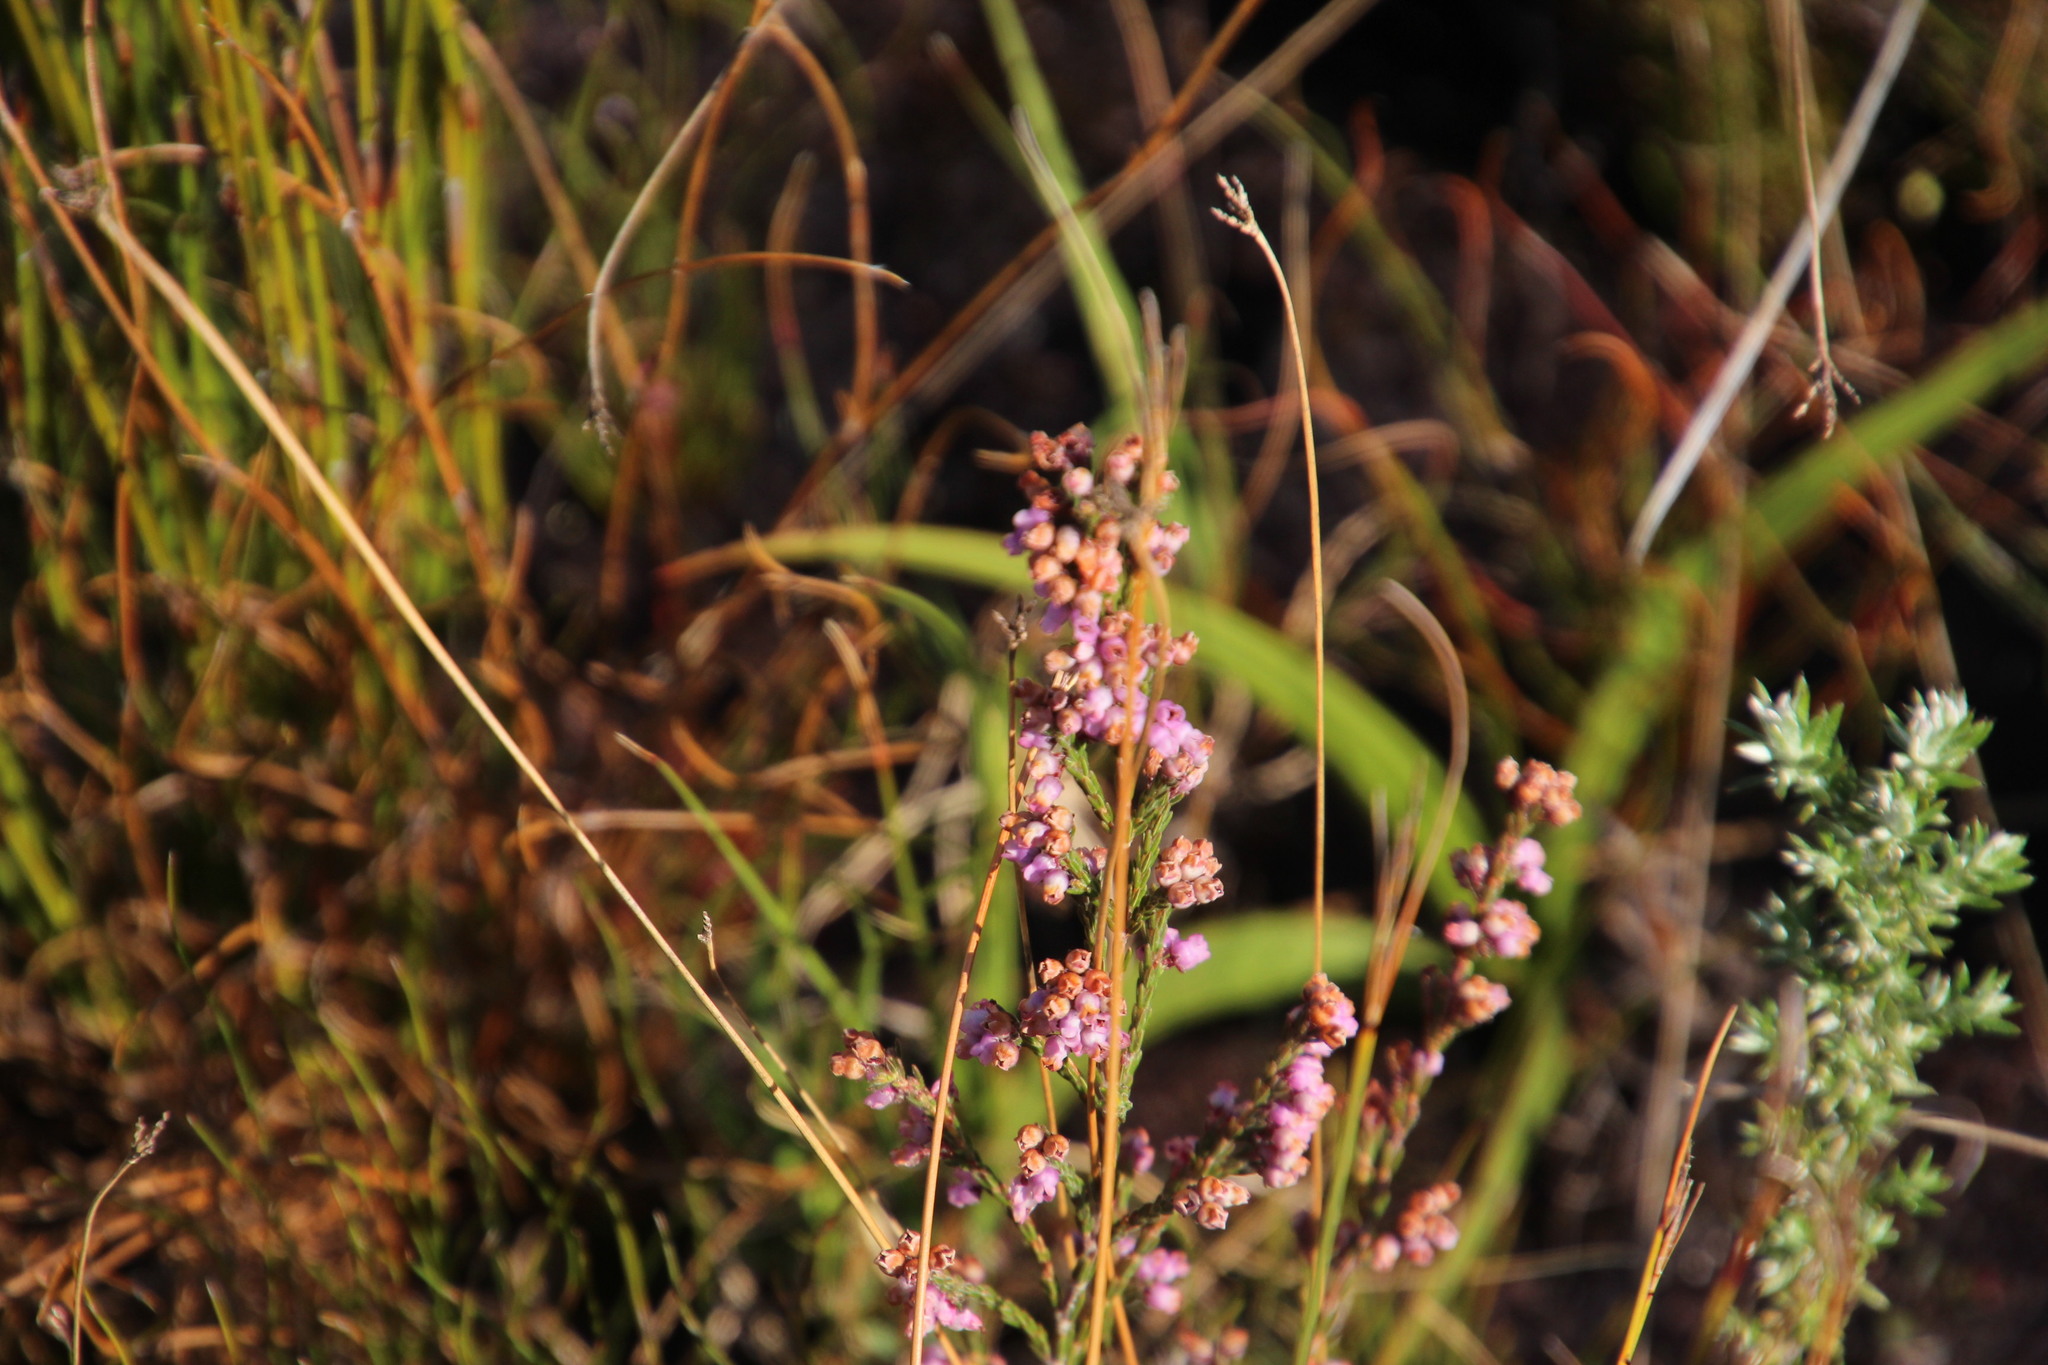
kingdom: Plantae
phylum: Tracheophyta
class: Magnoliopsida
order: Ericales
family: Ericaceae
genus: Erica
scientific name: Erica chionophila
